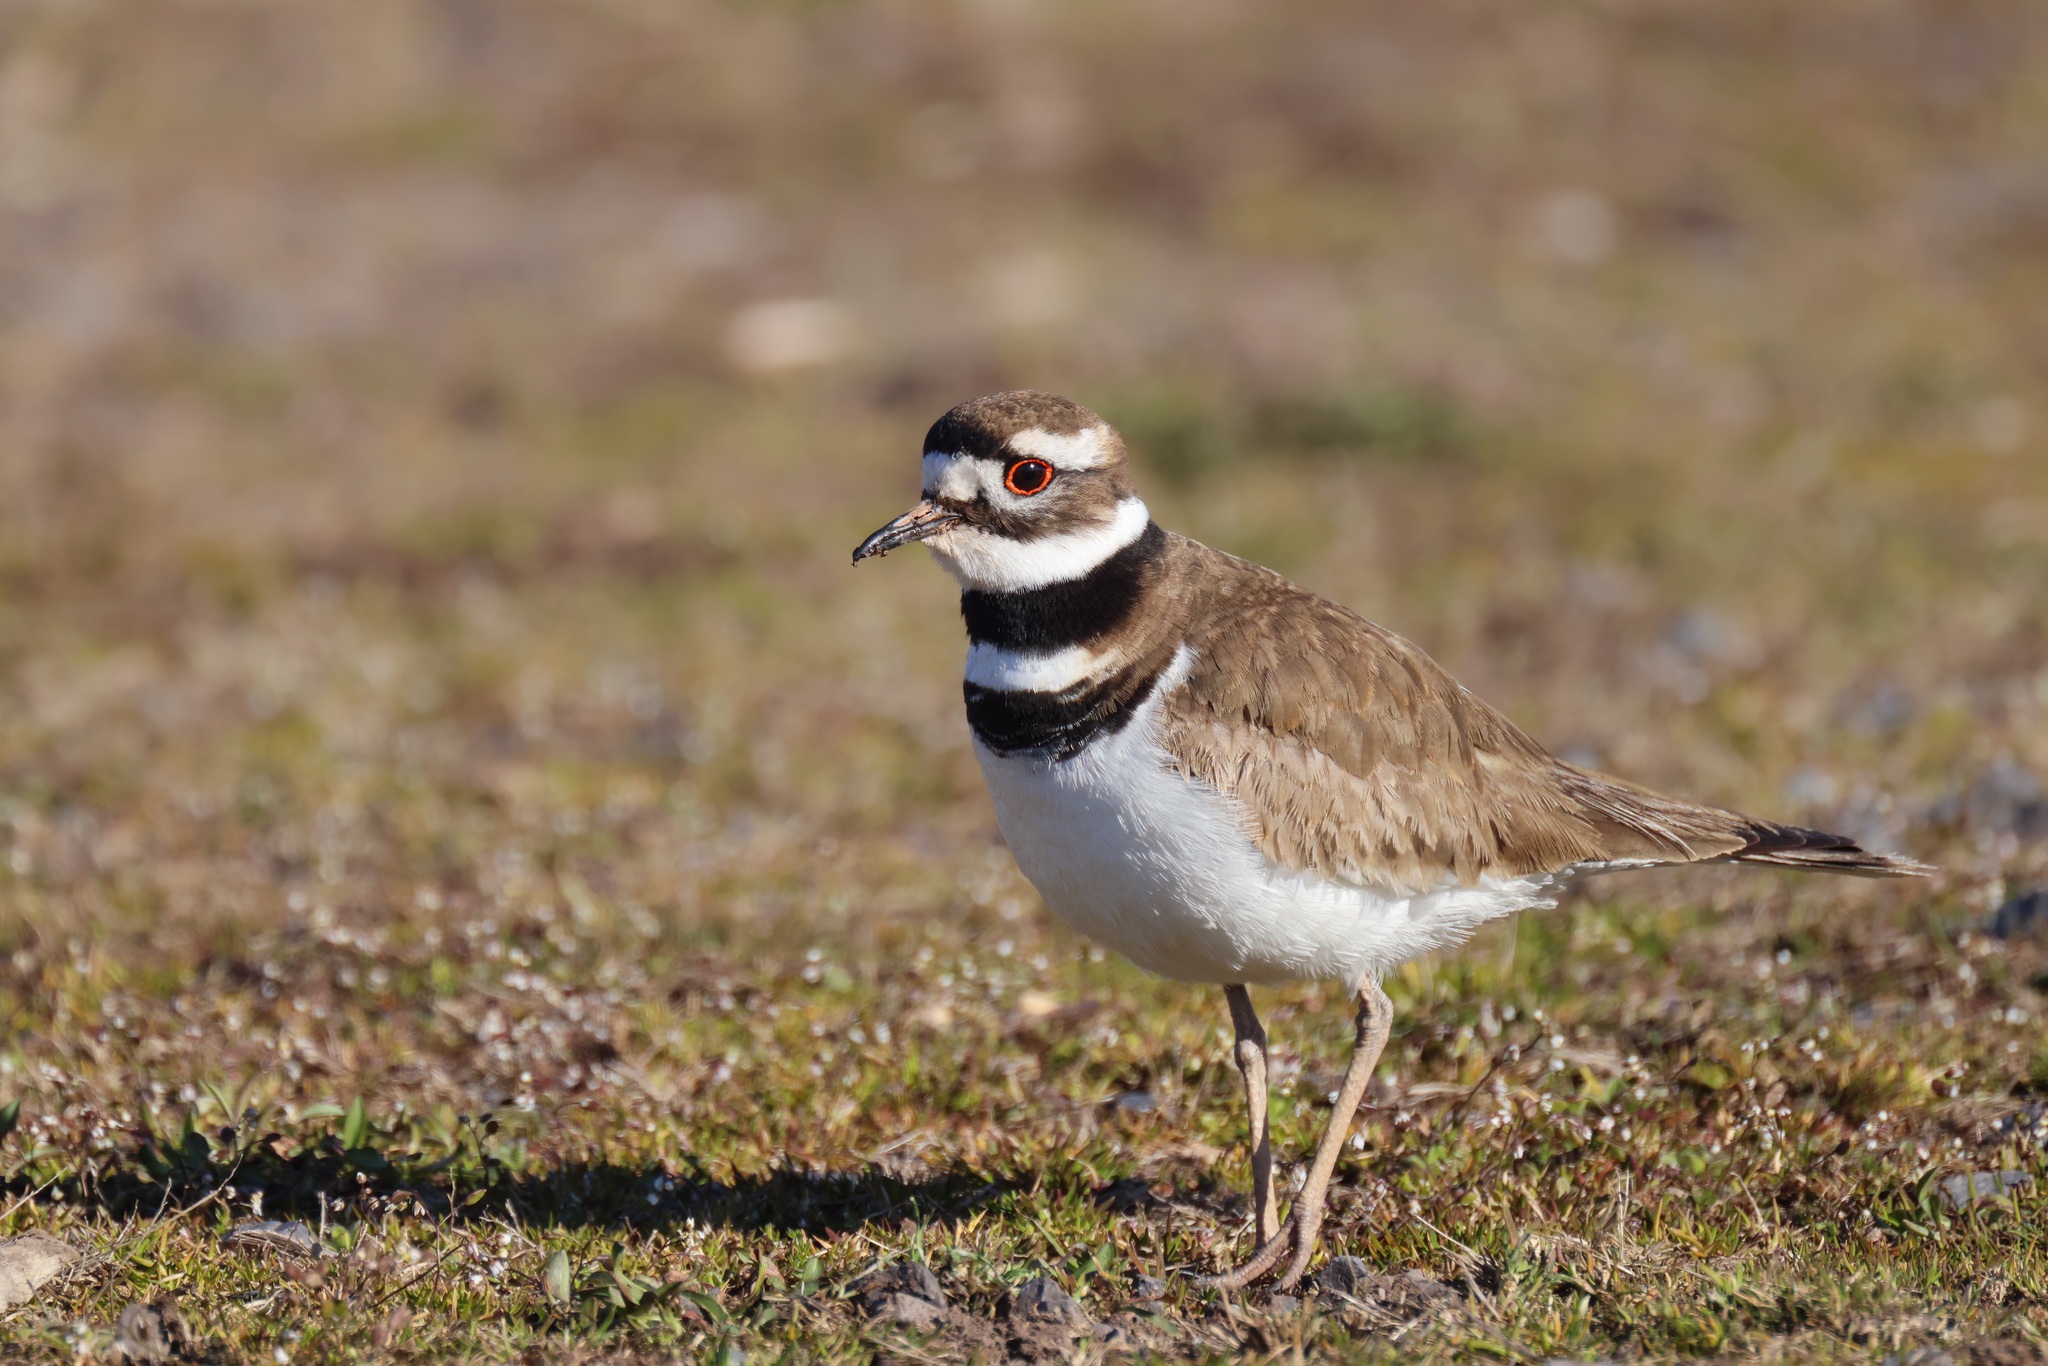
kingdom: Animalia
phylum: Chordata
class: Aves
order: Charadriiformes
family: Charadriidae
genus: Charadrius
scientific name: Charadrius vociferus
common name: Killdeer
